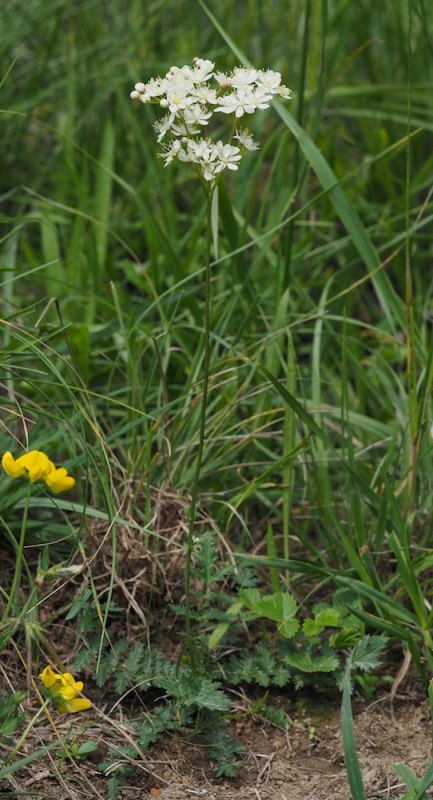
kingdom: Plantae
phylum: Tracheophyta
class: Magnoliopsida
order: Rosales
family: Rosaceae
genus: Filipendula
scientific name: Filipendula vulgaris
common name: Dropwort
